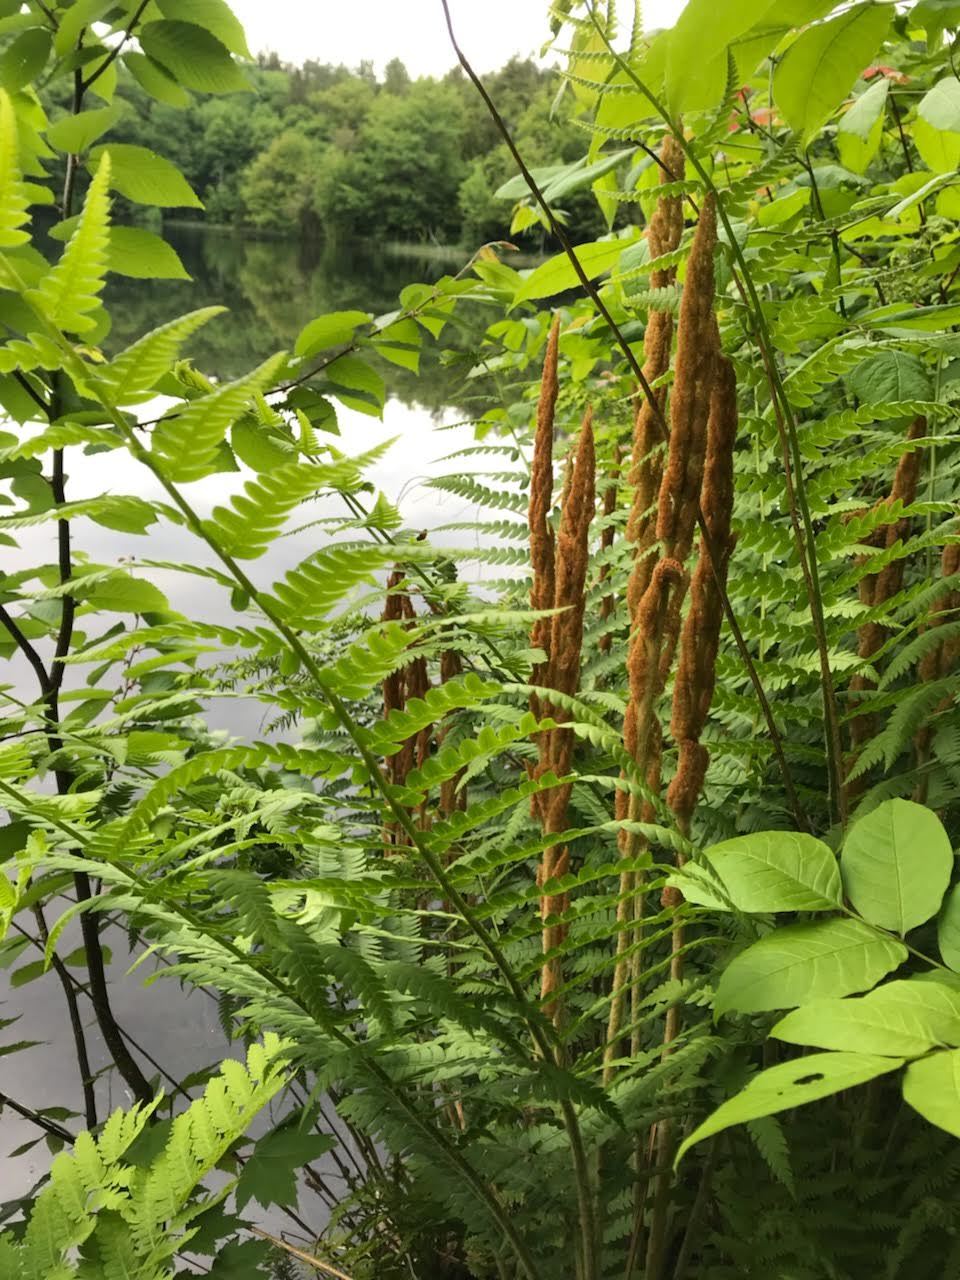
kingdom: Plantae
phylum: Tracheophyta
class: Polypodiopsida
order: Osmundales
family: Osmundaceae
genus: Osmundastrum
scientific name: Osmundastrum cinnamomeum
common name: Cinnamon fern
